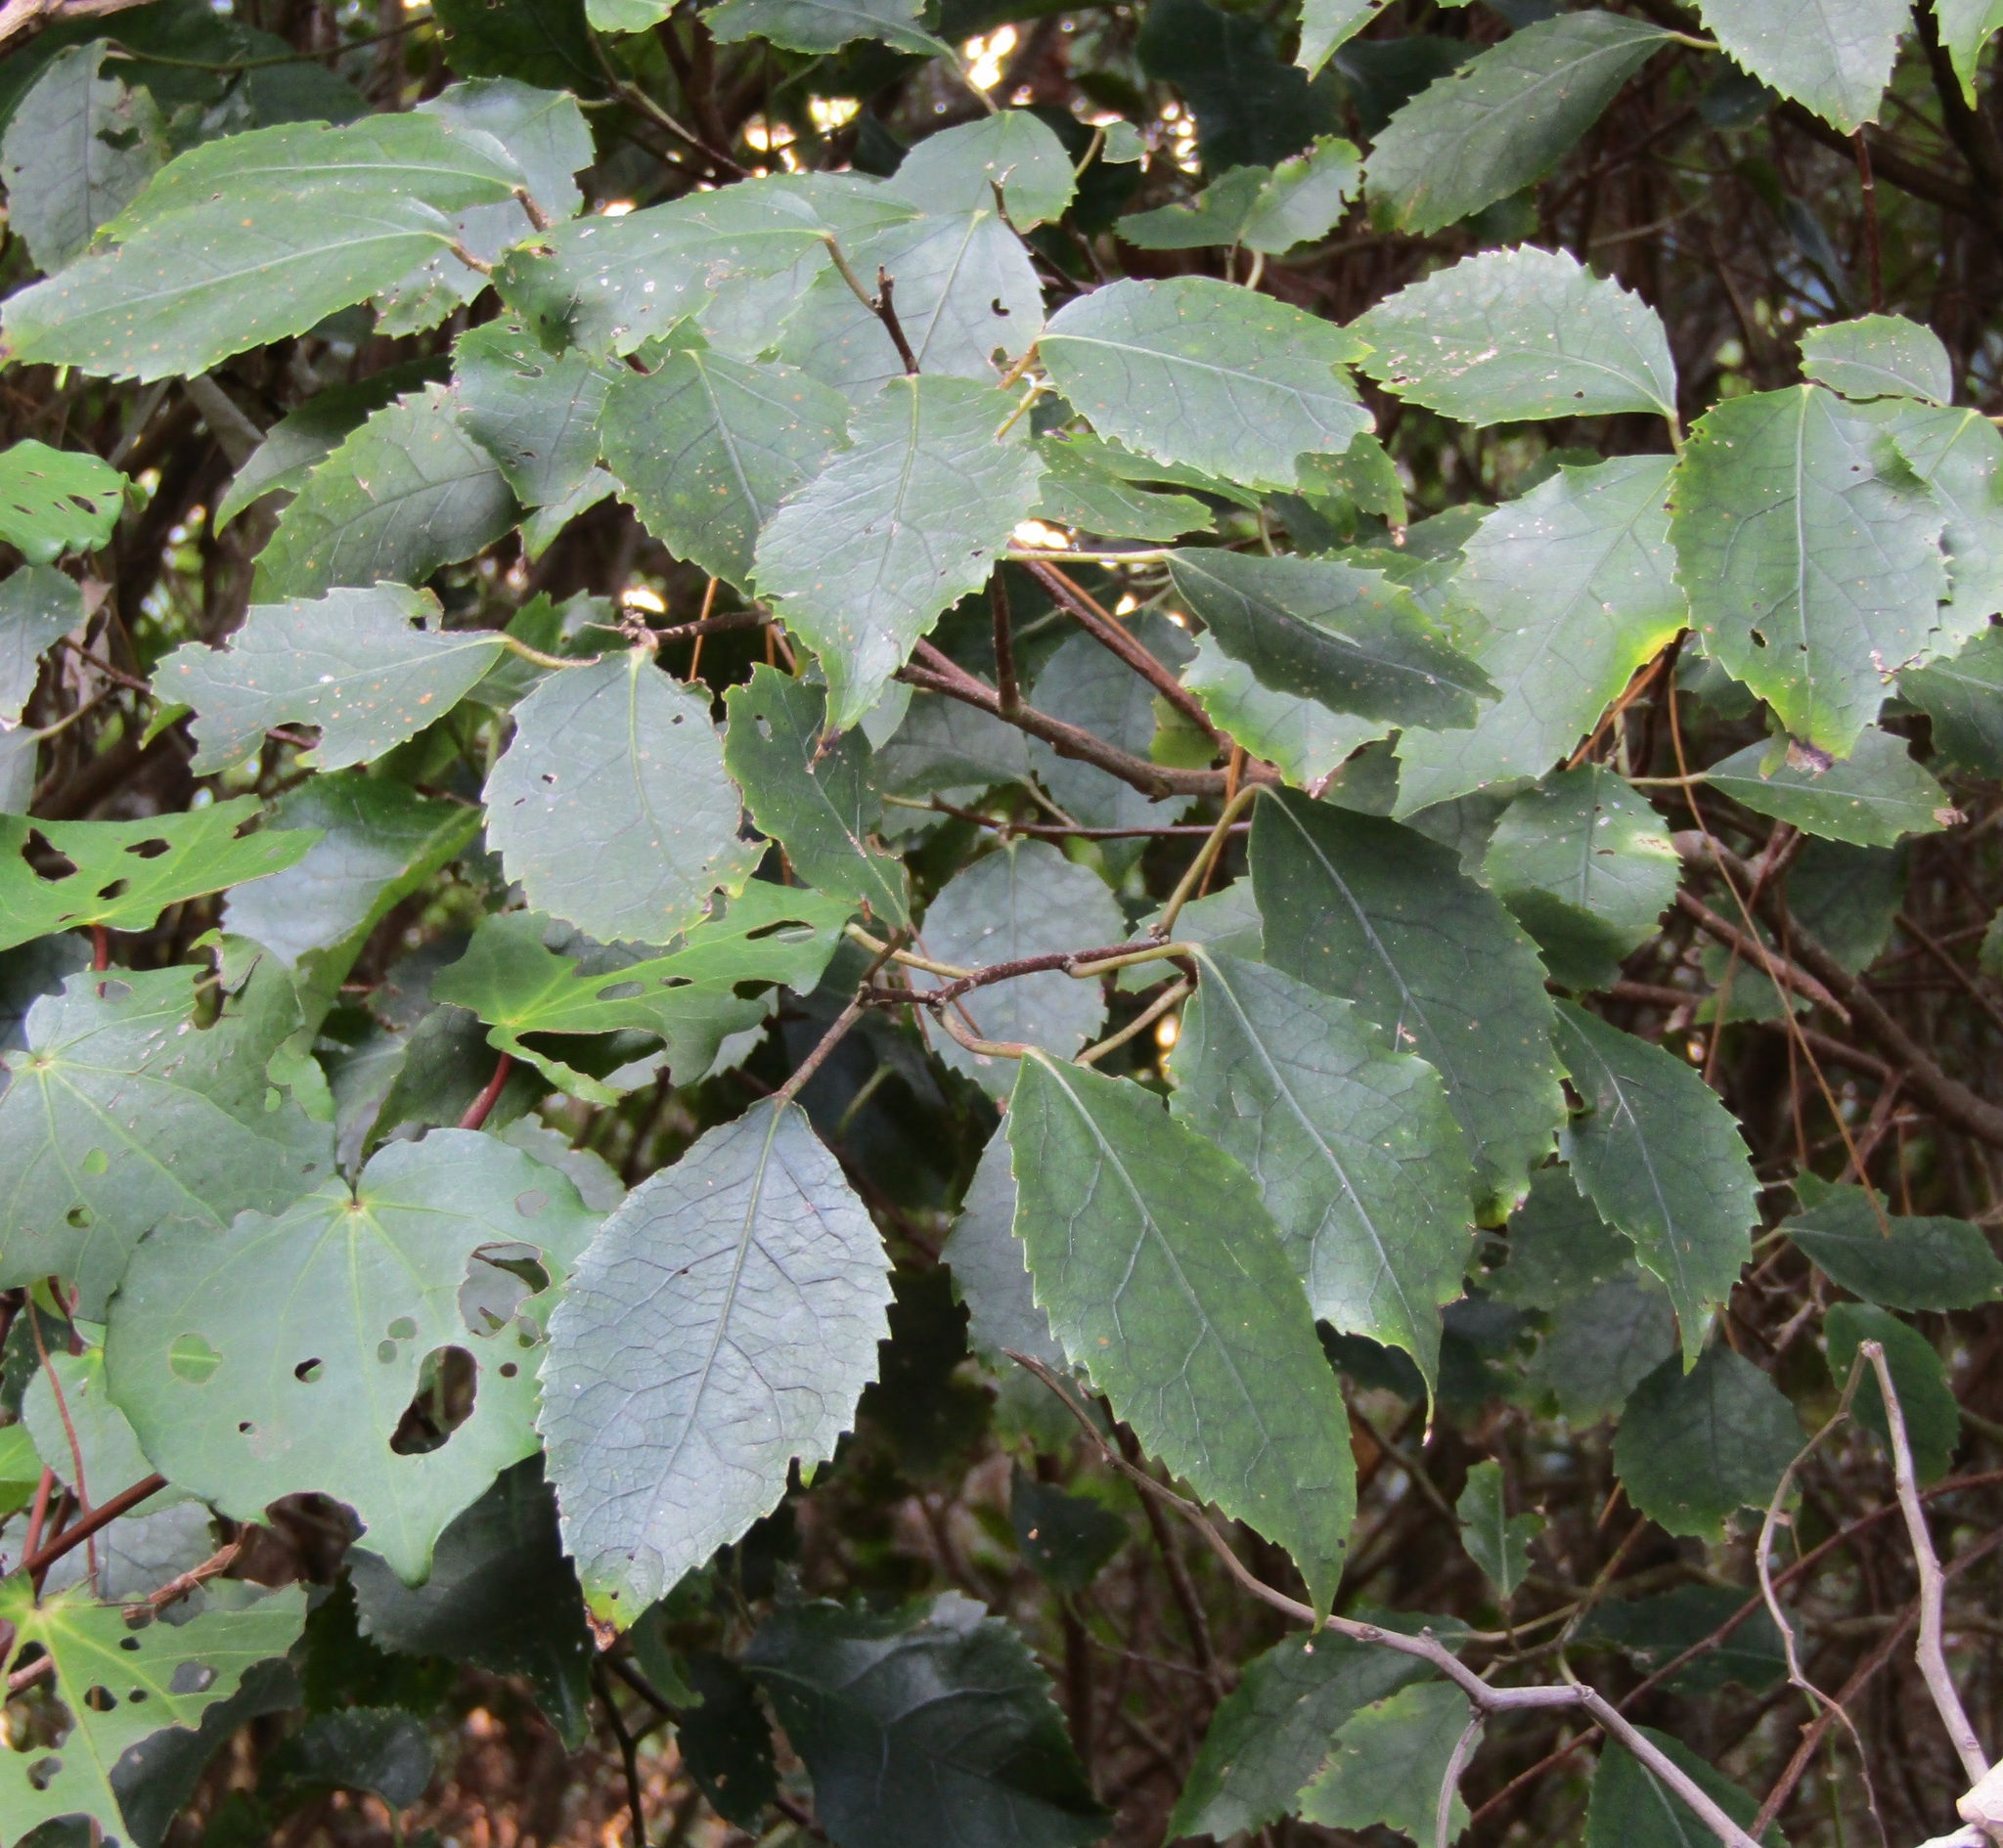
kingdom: Plantae
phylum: Tracheophyta
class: Magnoliopsida
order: Malvales
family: Malvaceae
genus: Hoheria
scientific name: Hoheria populnea
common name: Lacebark
